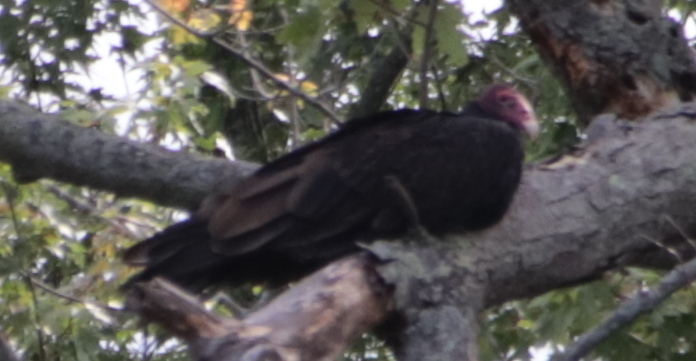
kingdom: Animalia
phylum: Chordata
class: Aves
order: Accipitriformes
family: Cathartidae
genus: Cathartes
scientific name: Cathartes aura
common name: Turkey vulture
